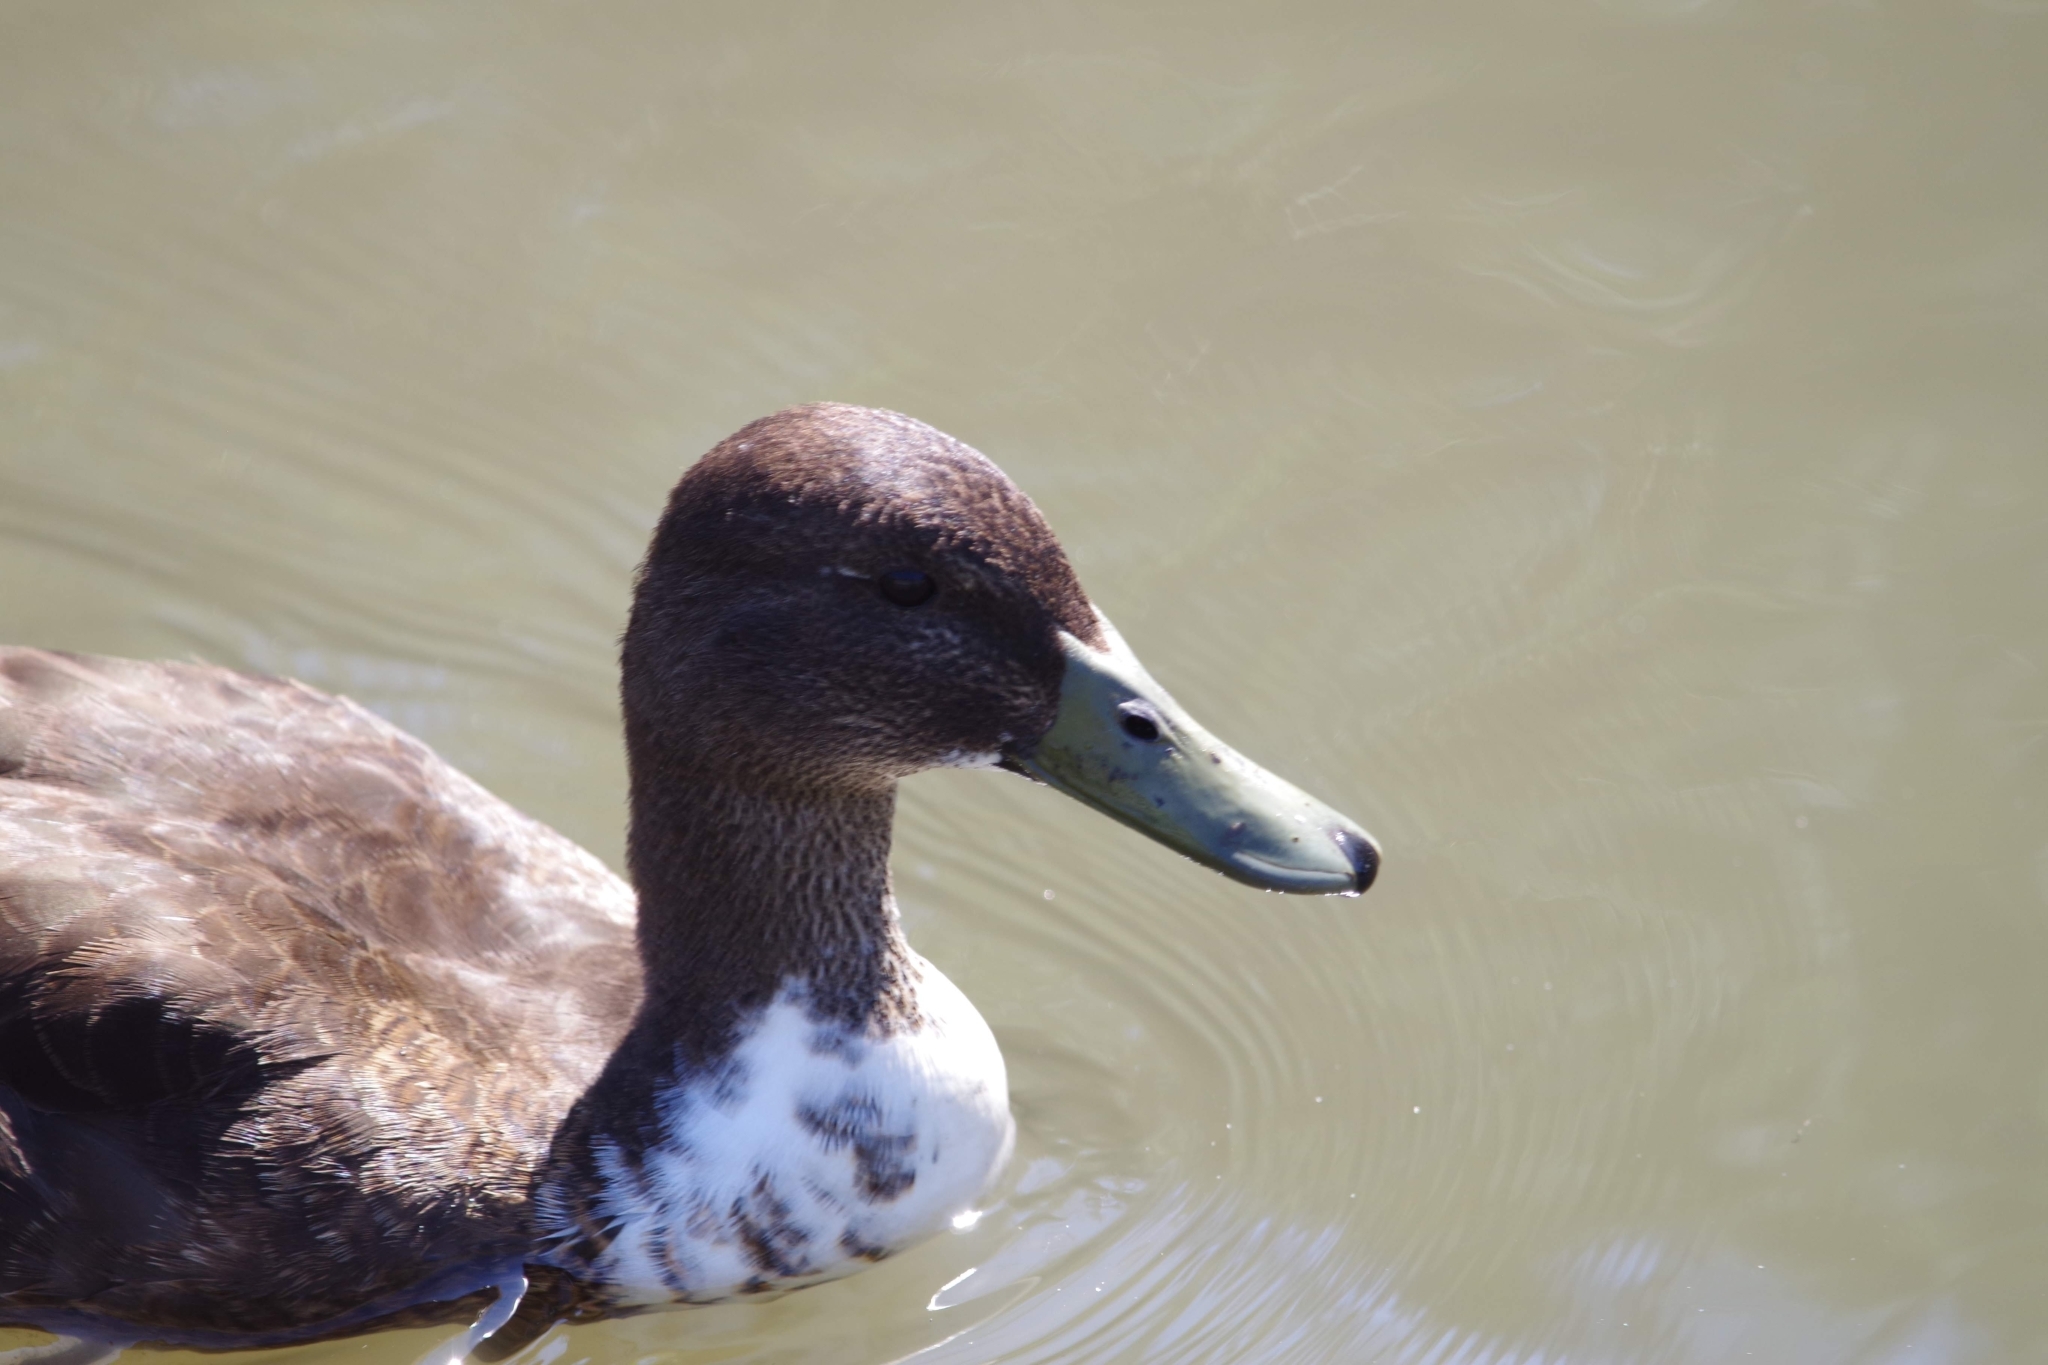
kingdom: Animalia
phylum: Chordata
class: Aves
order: Anseriformes
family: Anatidae
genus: Anas
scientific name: Anas platyrhynchos
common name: Mallard
